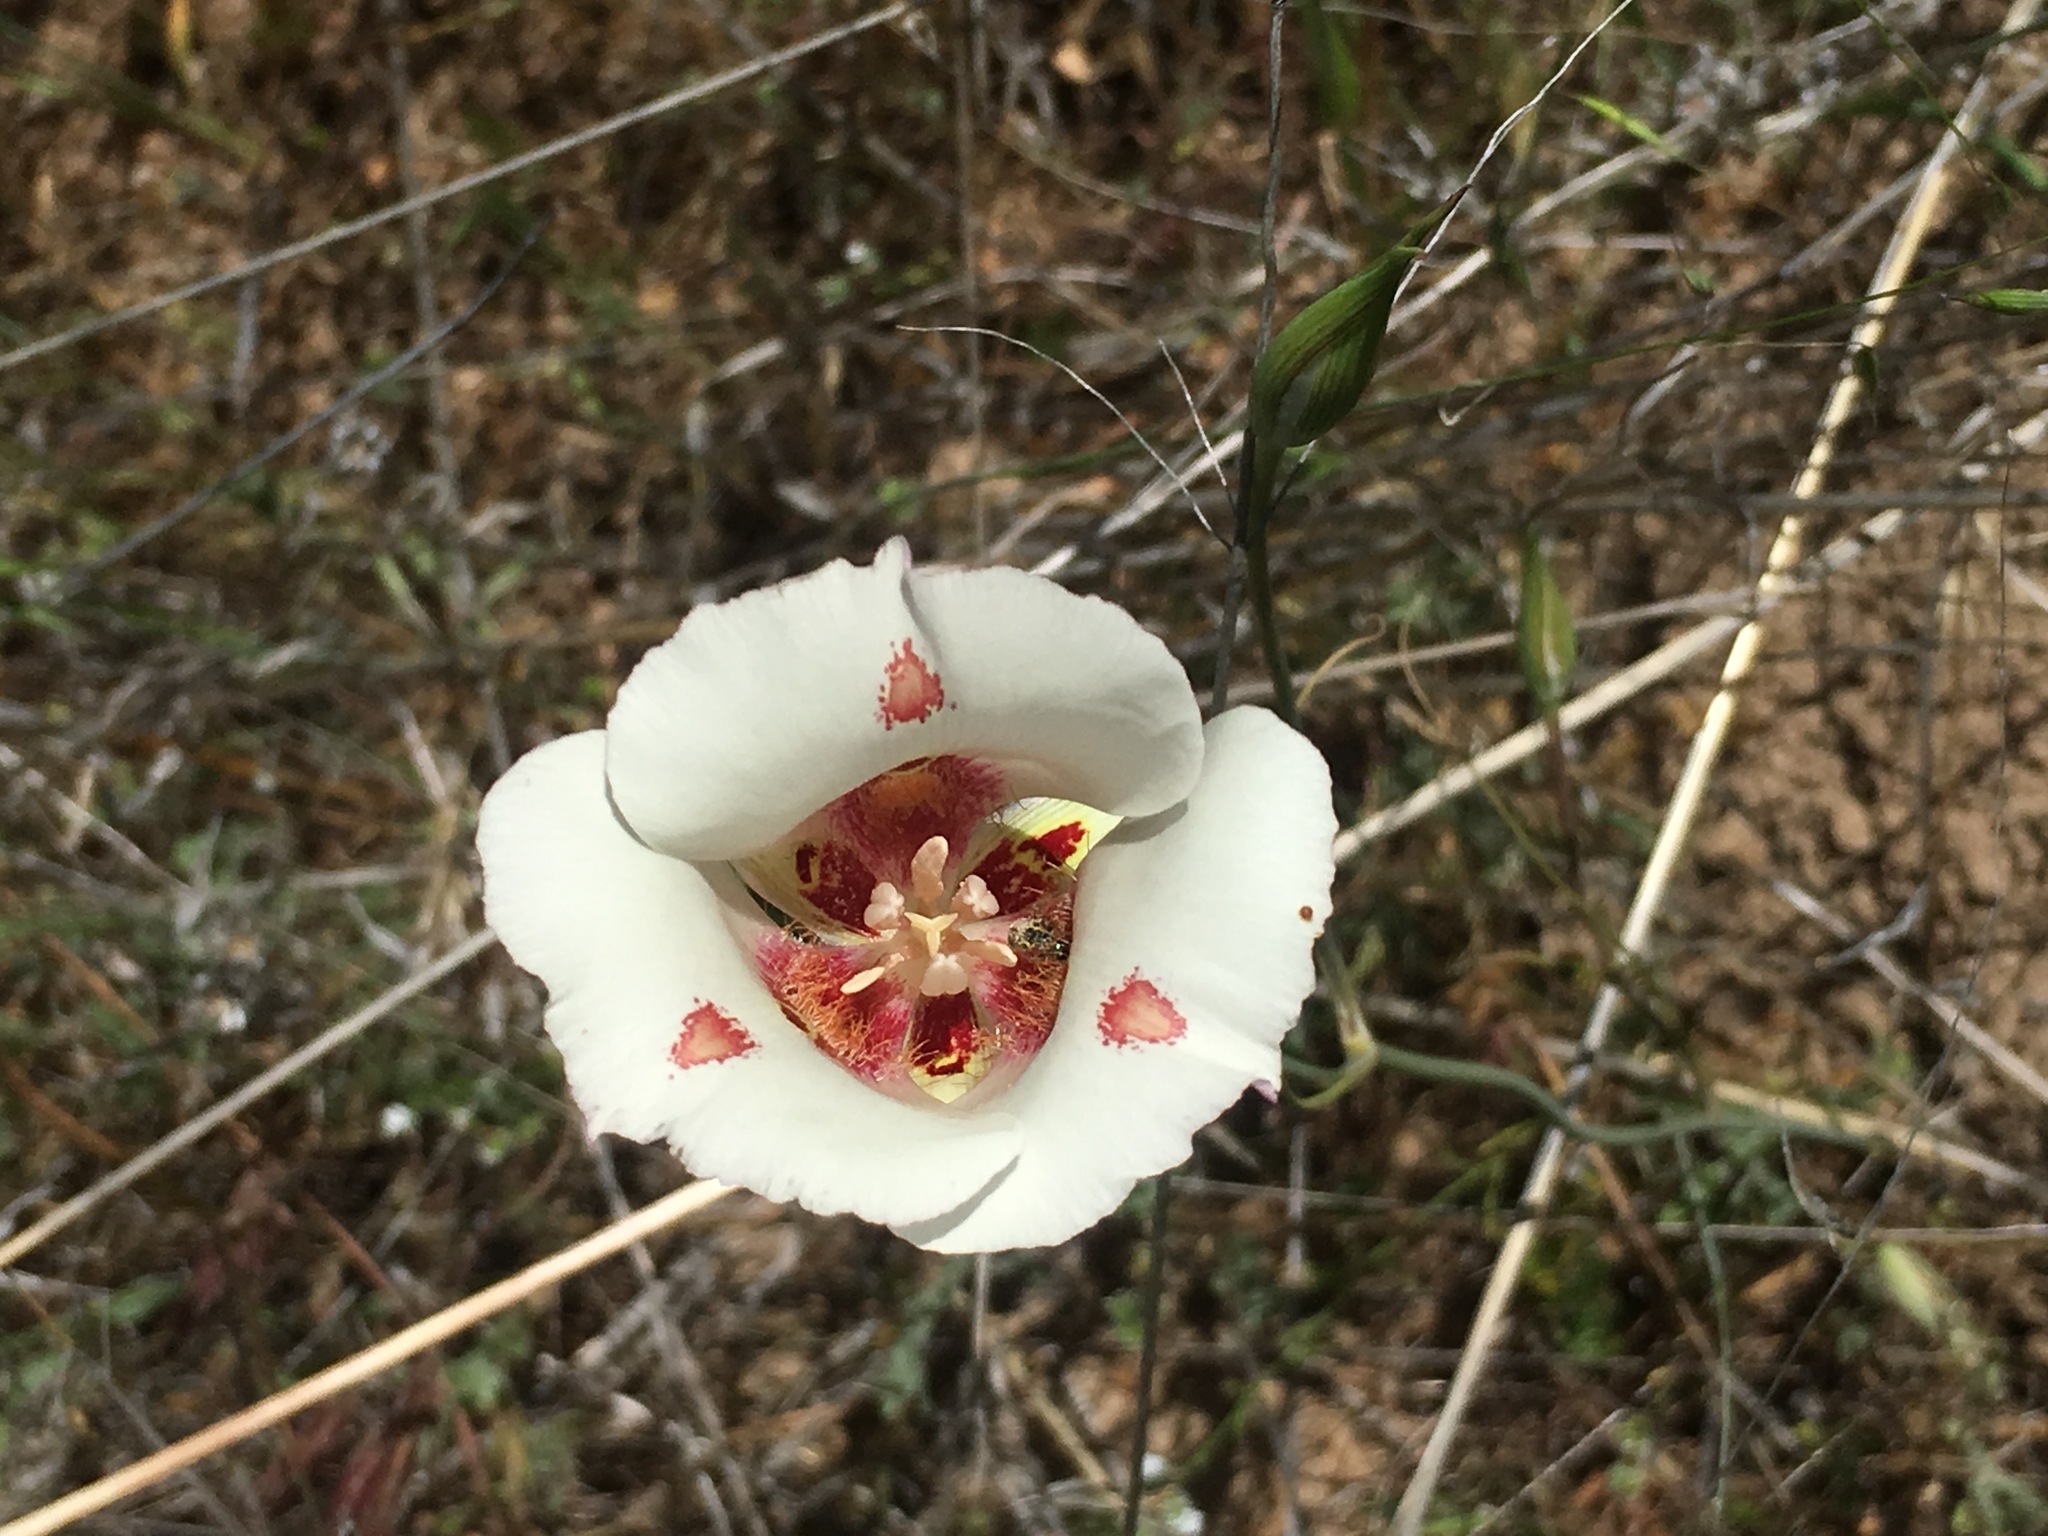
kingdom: Plantae
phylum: Tracheophyta
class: Liliopsida
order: Liliales
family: Liliaceae
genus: Calochortus
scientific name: Calochortus venustus
